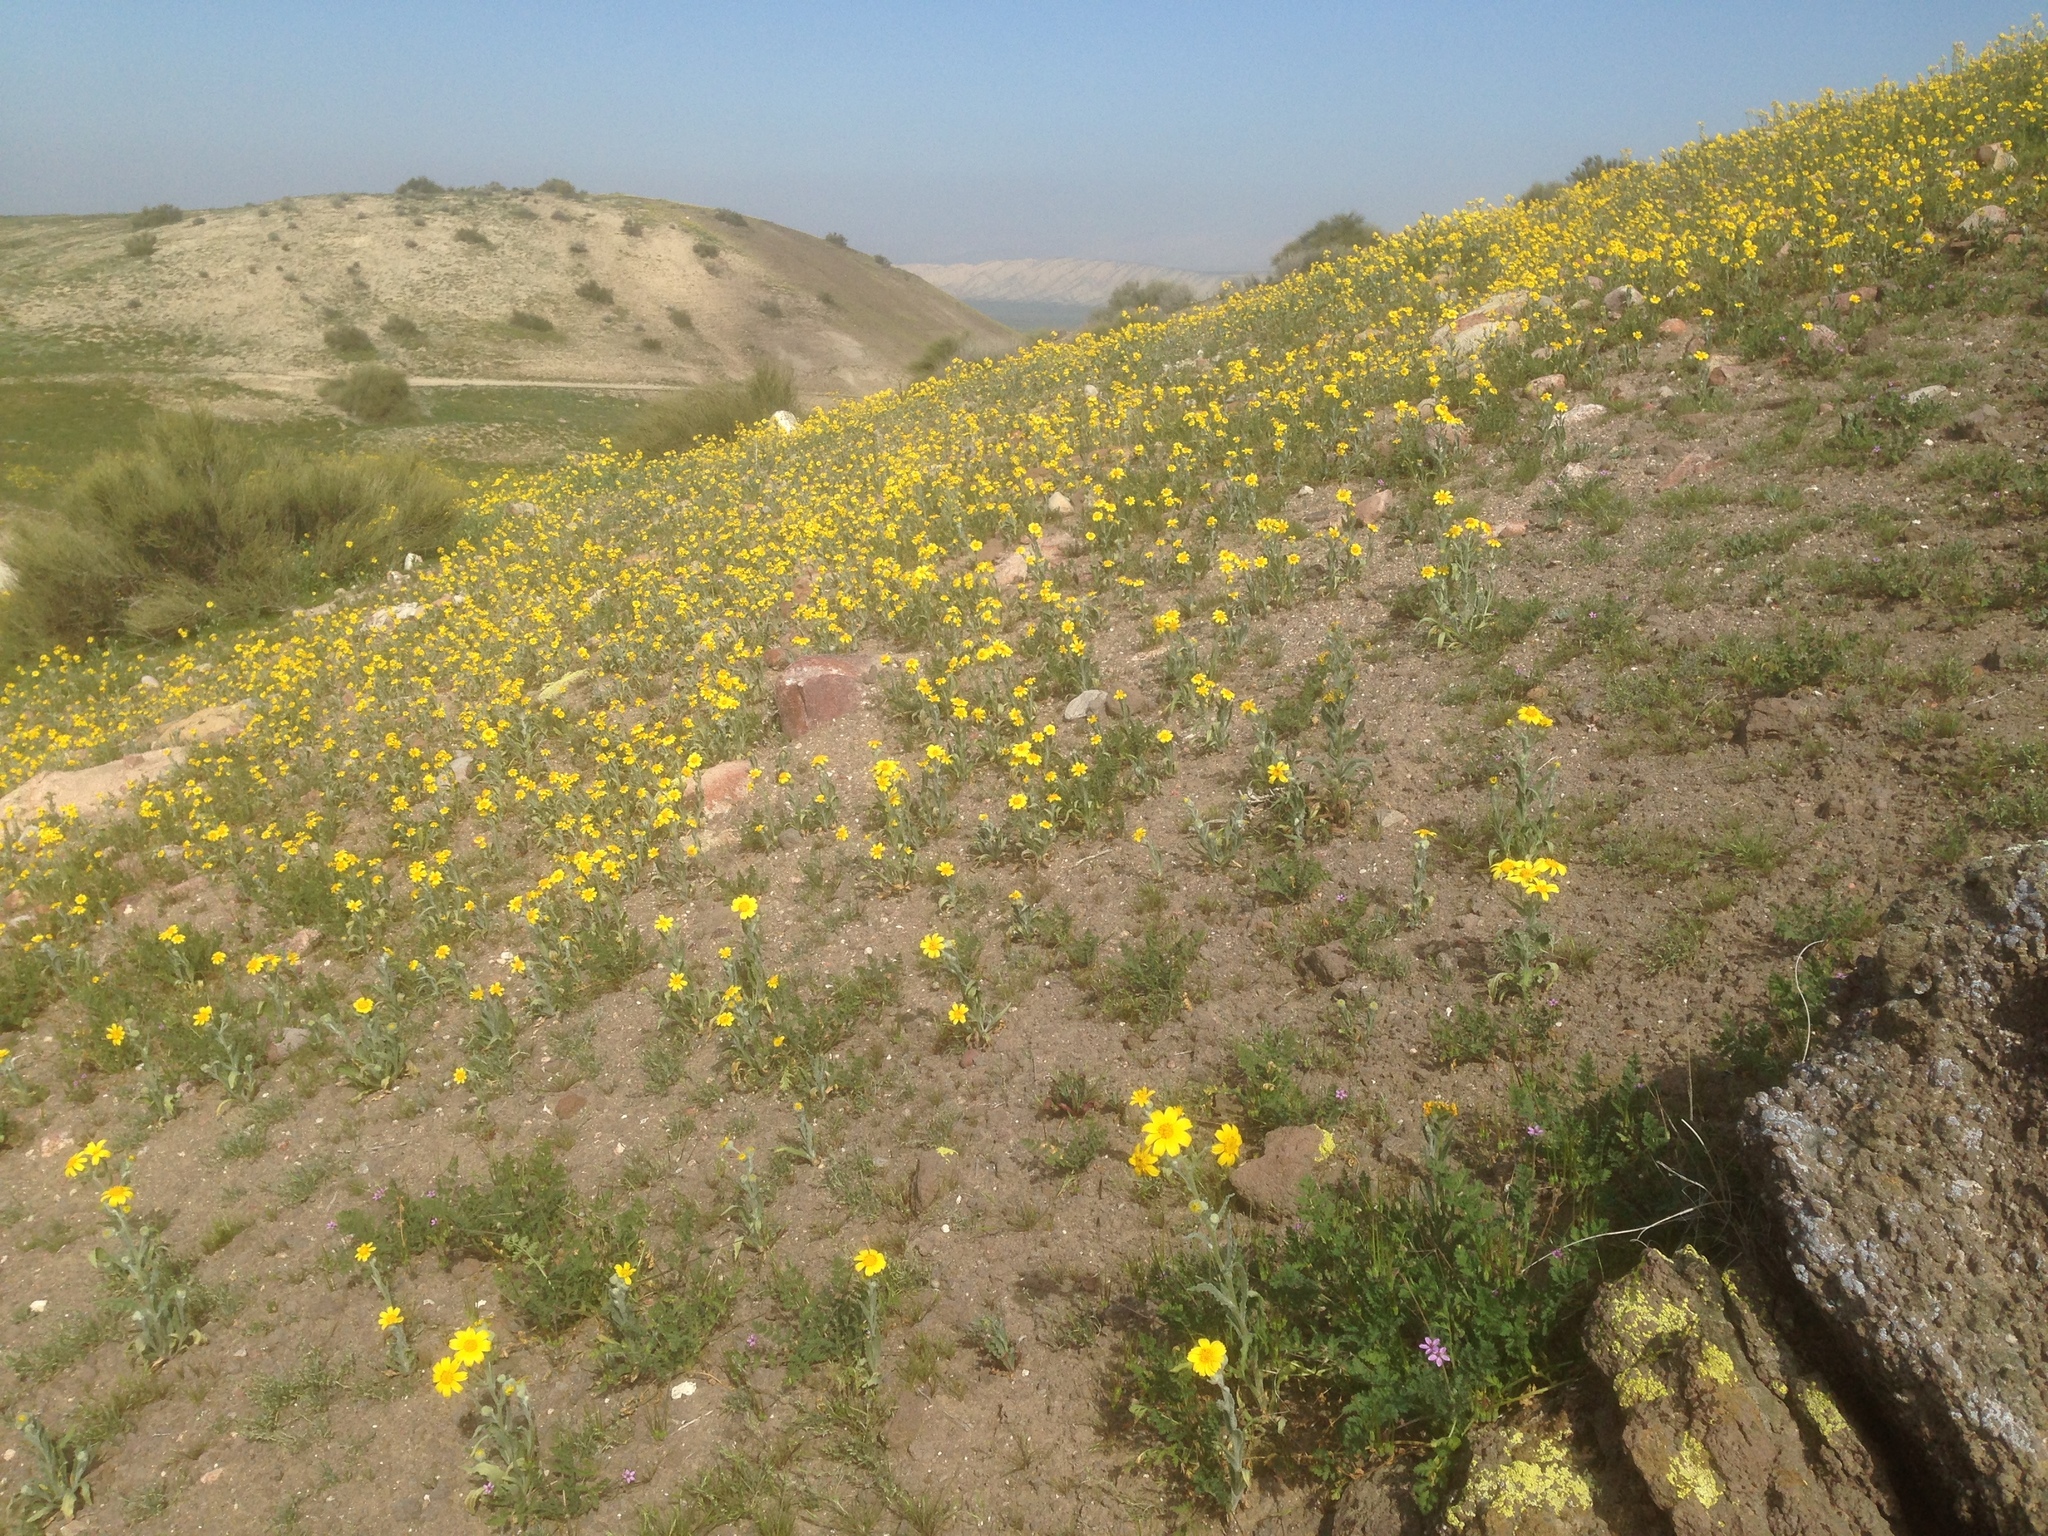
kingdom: Plantae
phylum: Tracheophyta
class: Magnoliopsida
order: Asterales
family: Asteraceae
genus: Monolopia
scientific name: Monolopia lanceolata
